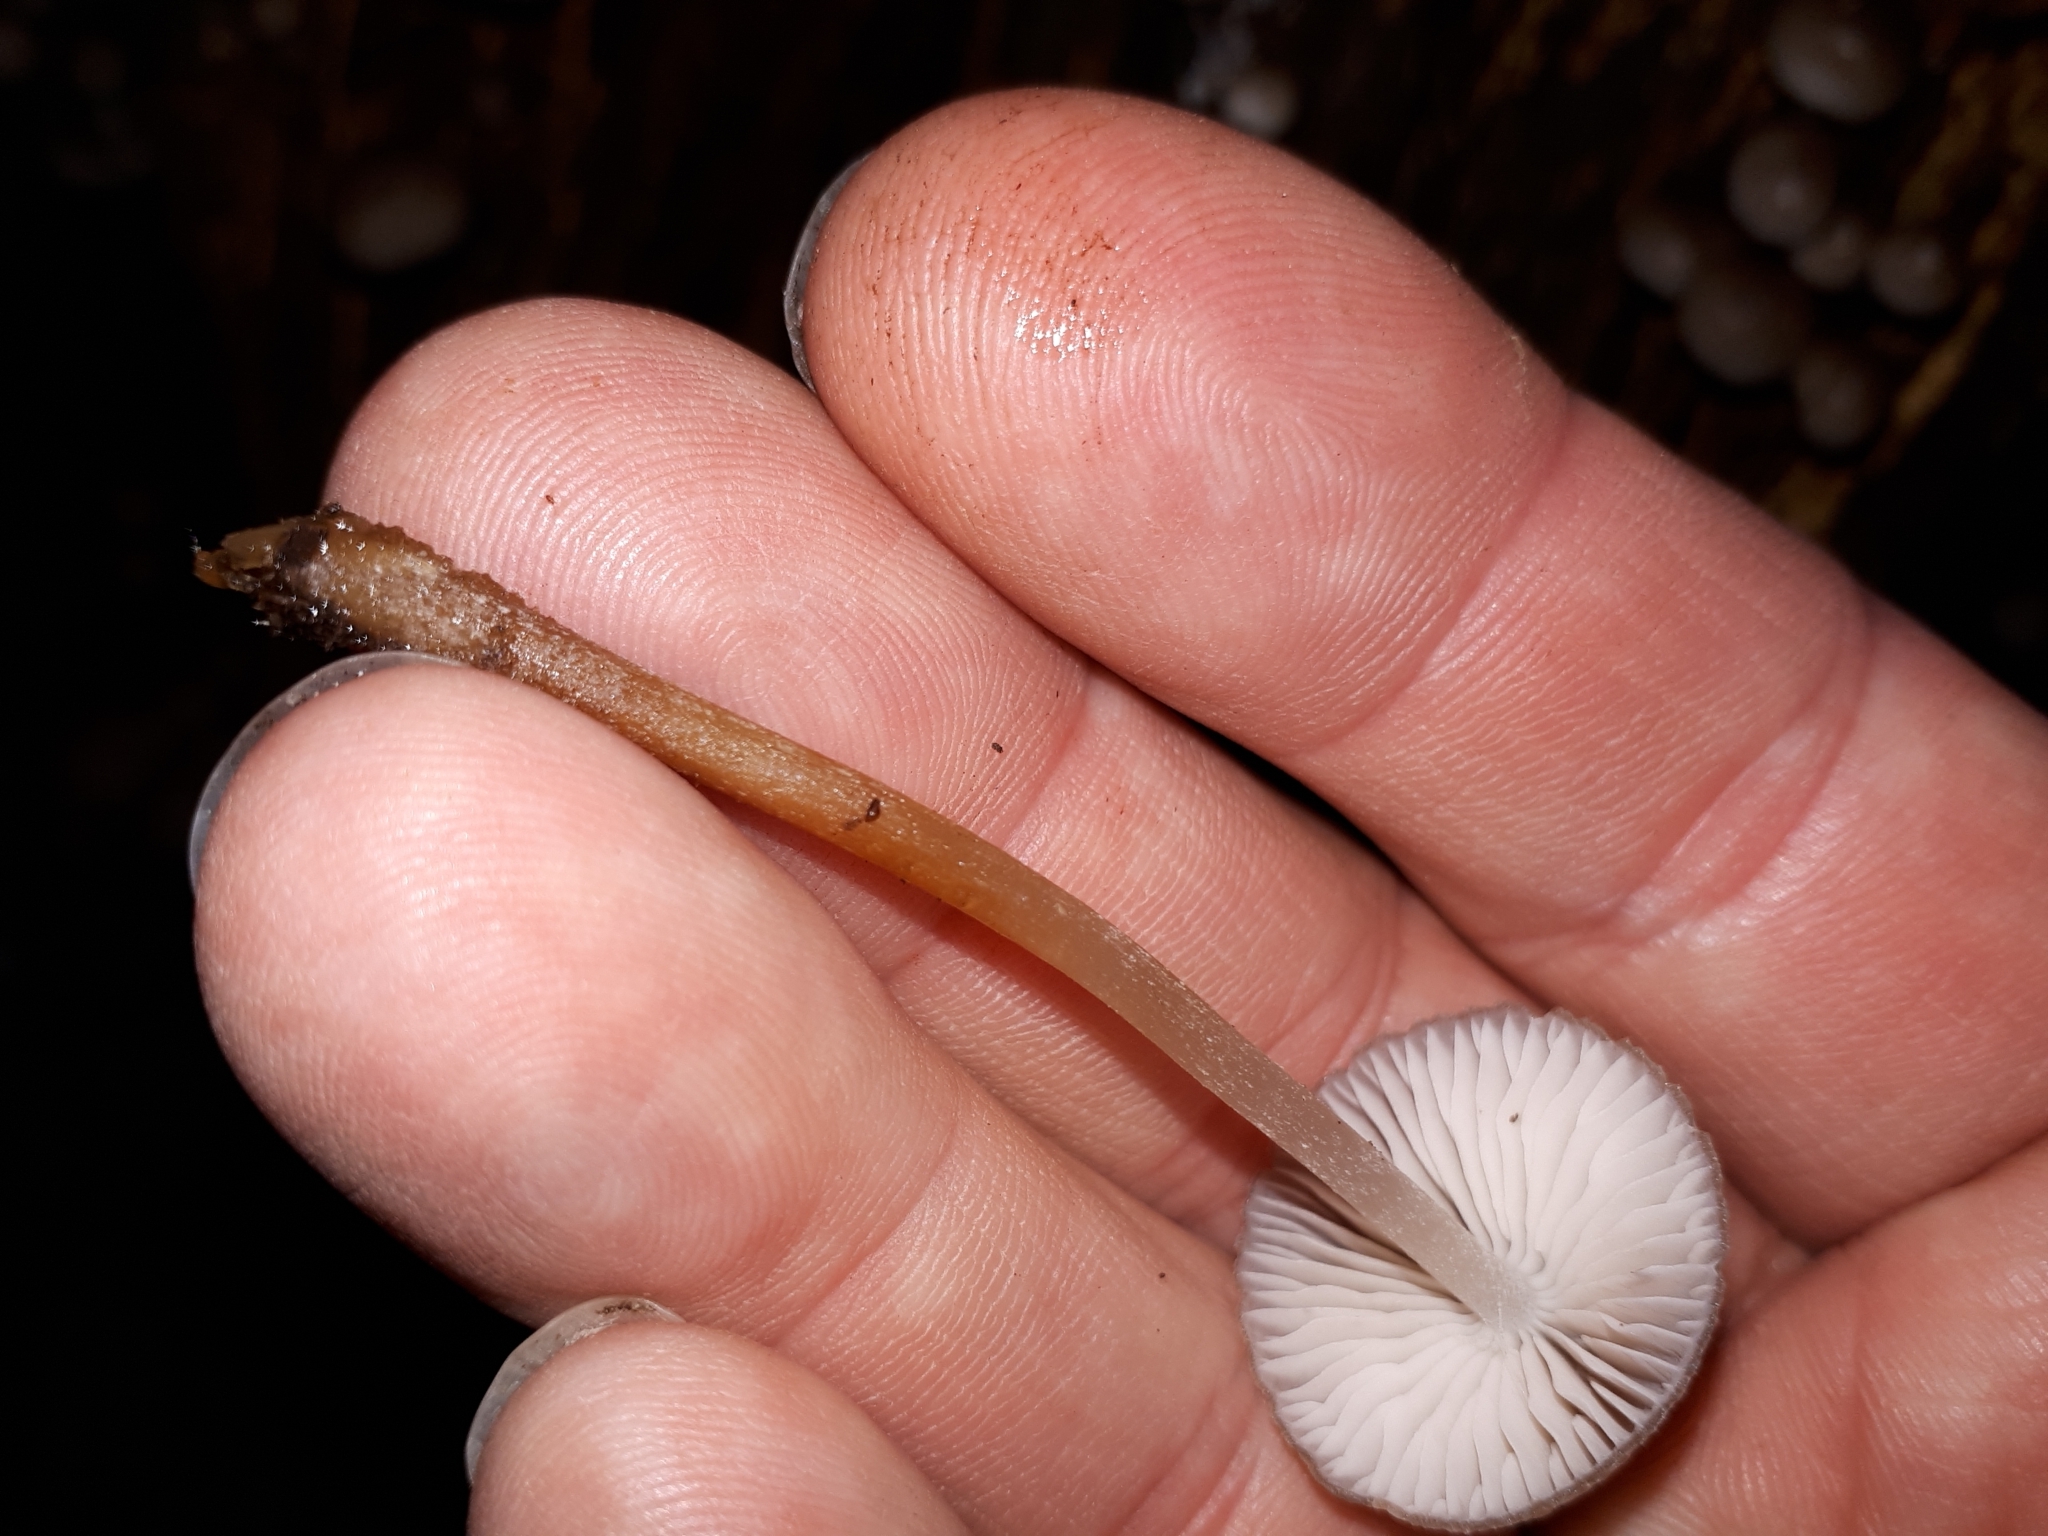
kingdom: Fungi
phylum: Basidiomycota
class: Agaricomycetes
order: Agaricales
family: Mycenaceae
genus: Mycena
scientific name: Mycena inclinata
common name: Clustered bonnet
